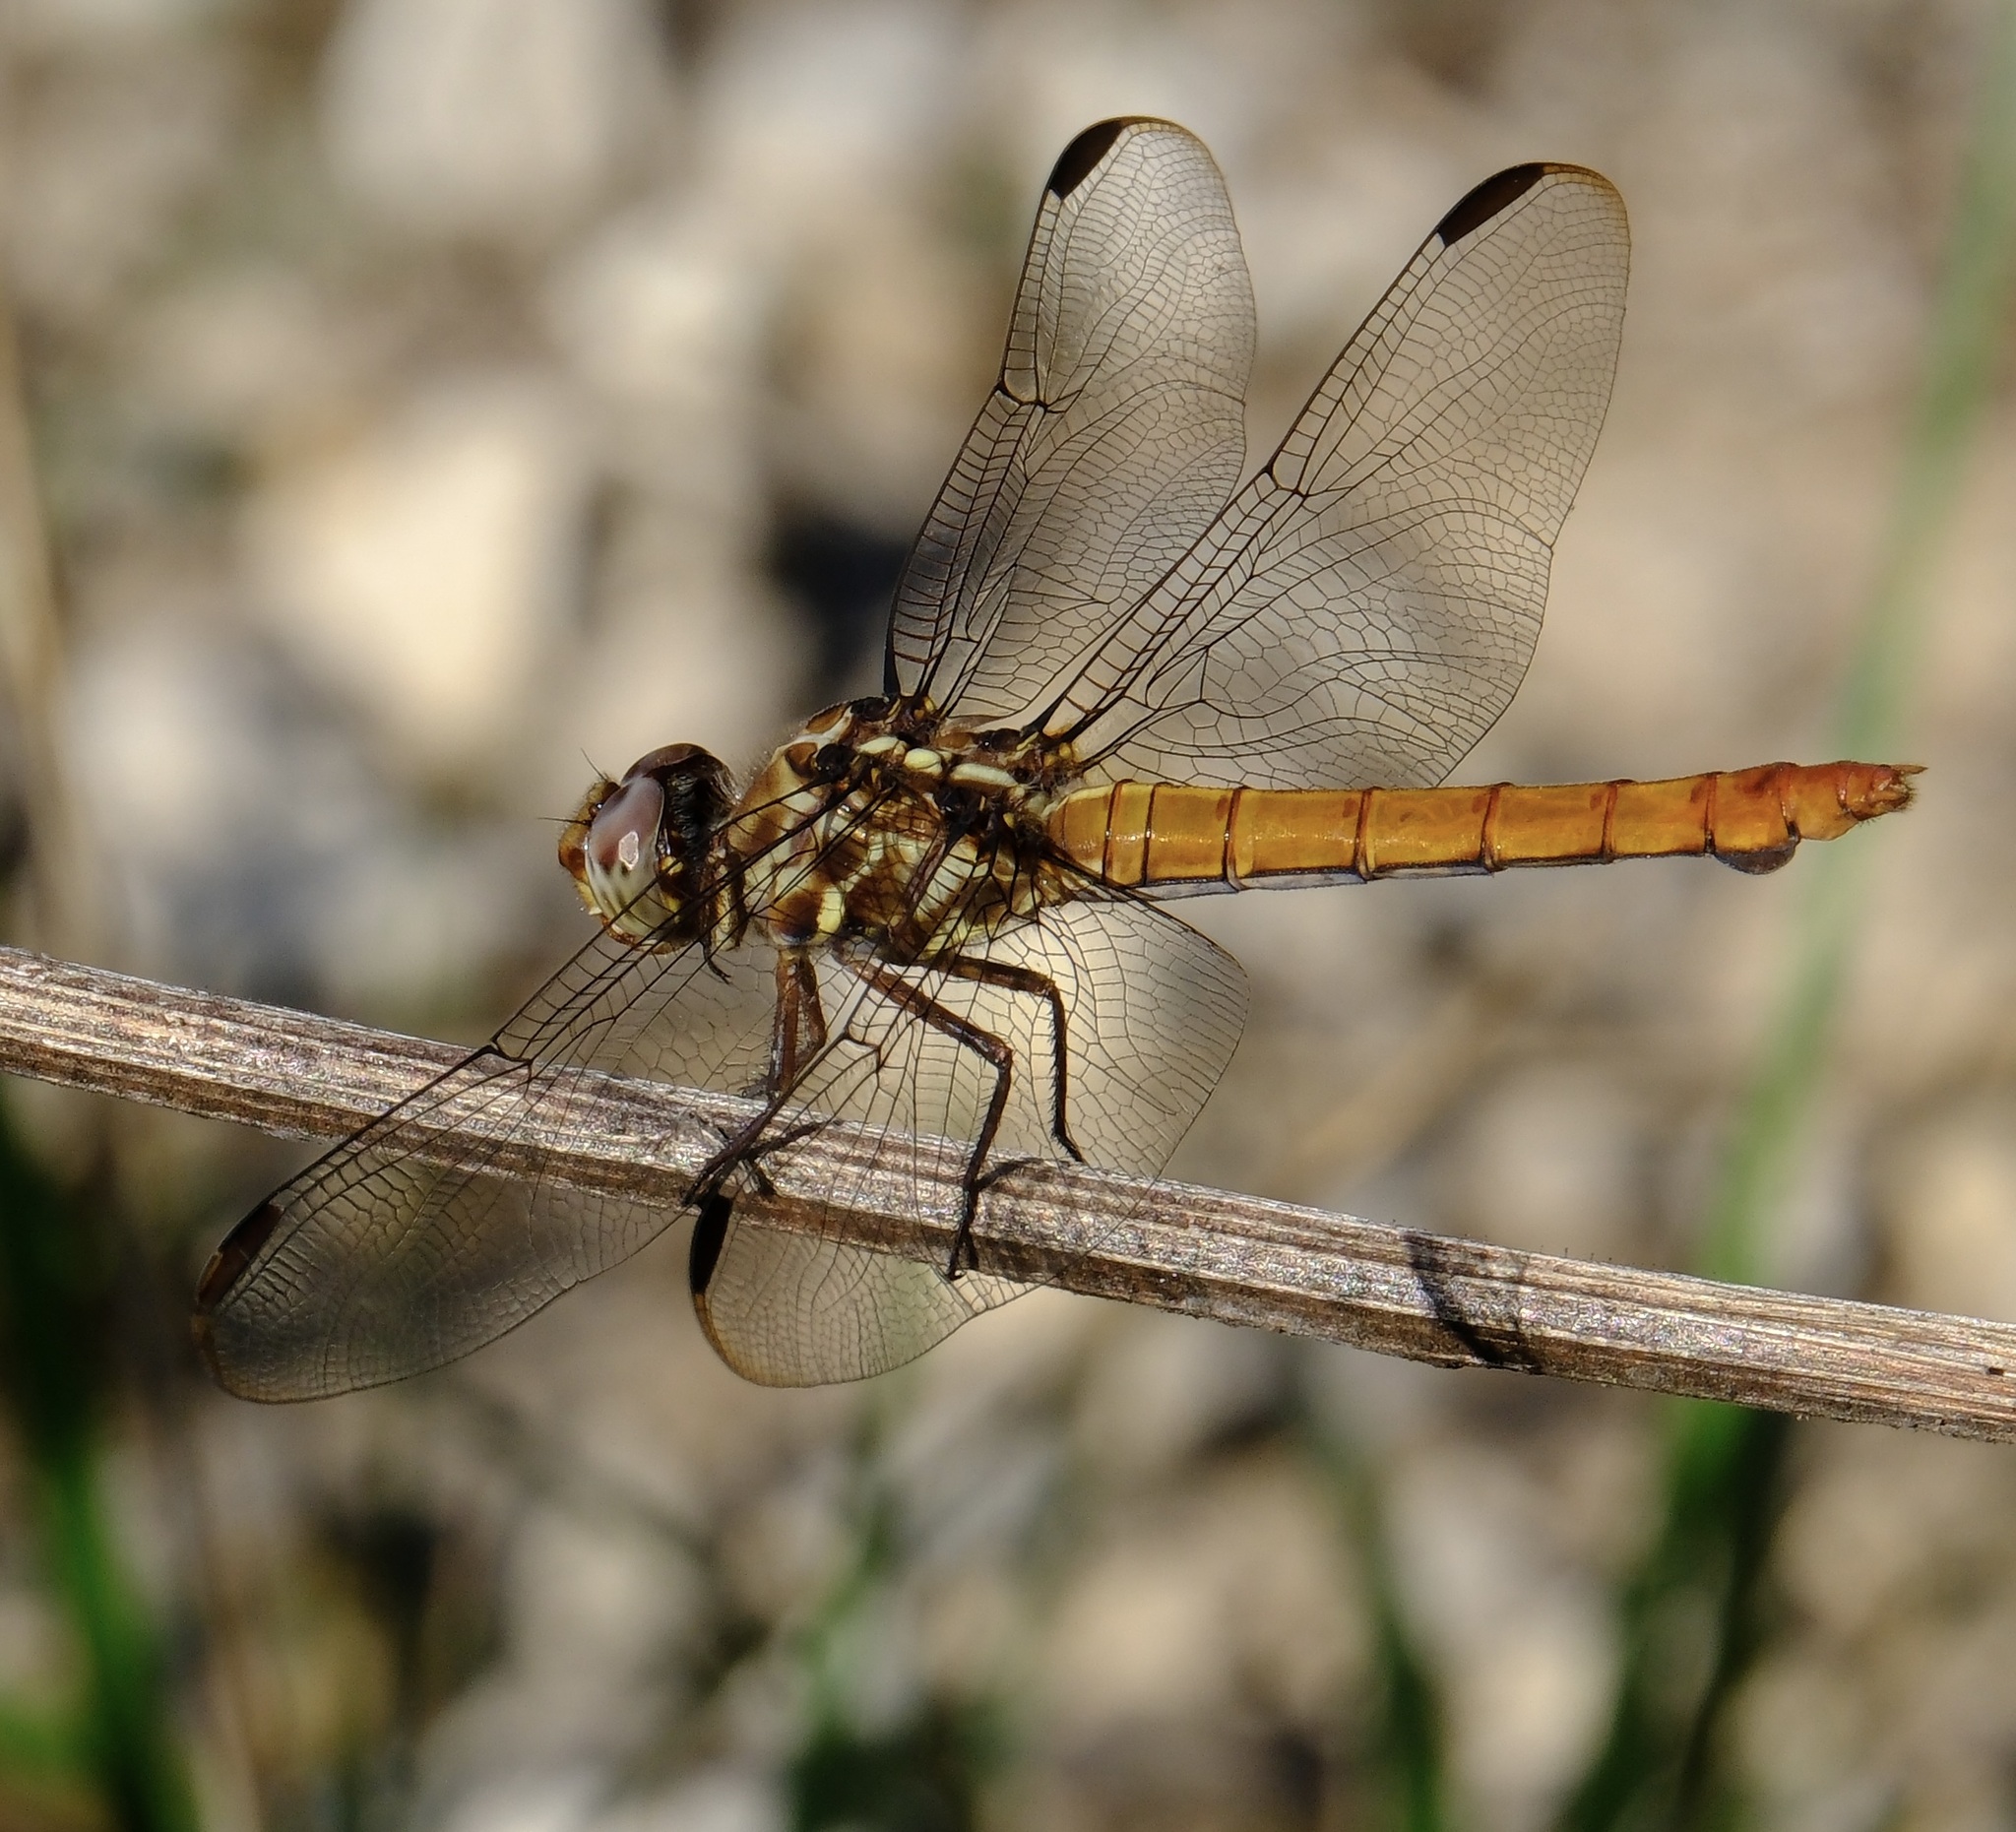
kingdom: Animalia
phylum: Arthropoda
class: Insecta
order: Odonata
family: Libellulidae
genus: Orthemis
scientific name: Orthemis ferruginea
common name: Roseate skimmer
